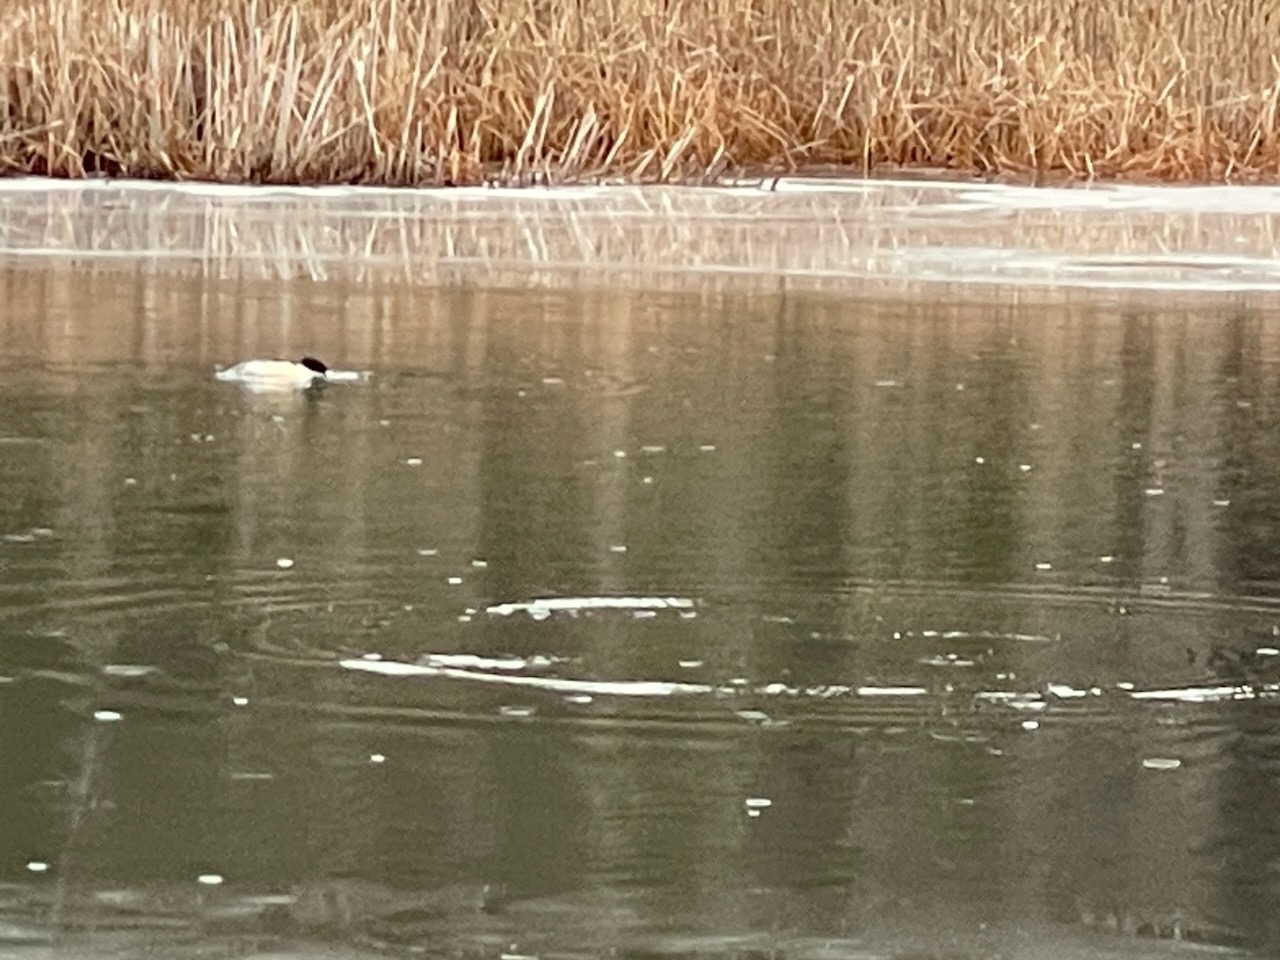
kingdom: Animalia
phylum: Chordata
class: Aves
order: Anseriformes
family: Anatidae
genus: Mergus
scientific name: Mergus merganser
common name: Common merganser
